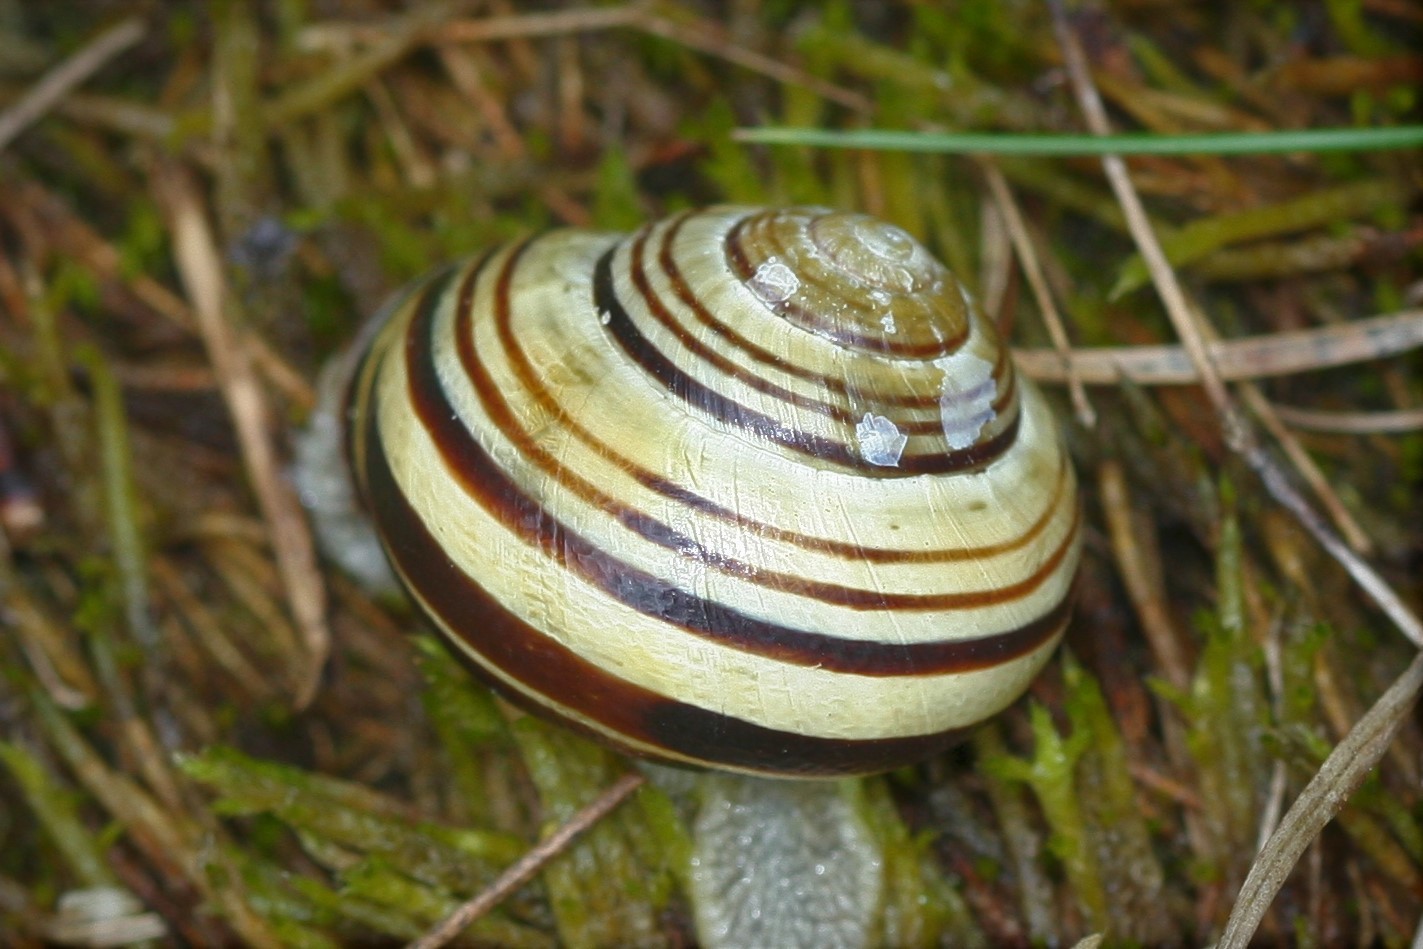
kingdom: Animalia
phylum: Mollusca
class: Gastropoda
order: Stylommatophora
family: Helicidae
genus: Cepaea
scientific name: Cepaea nemoralis
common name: Grovesnail
